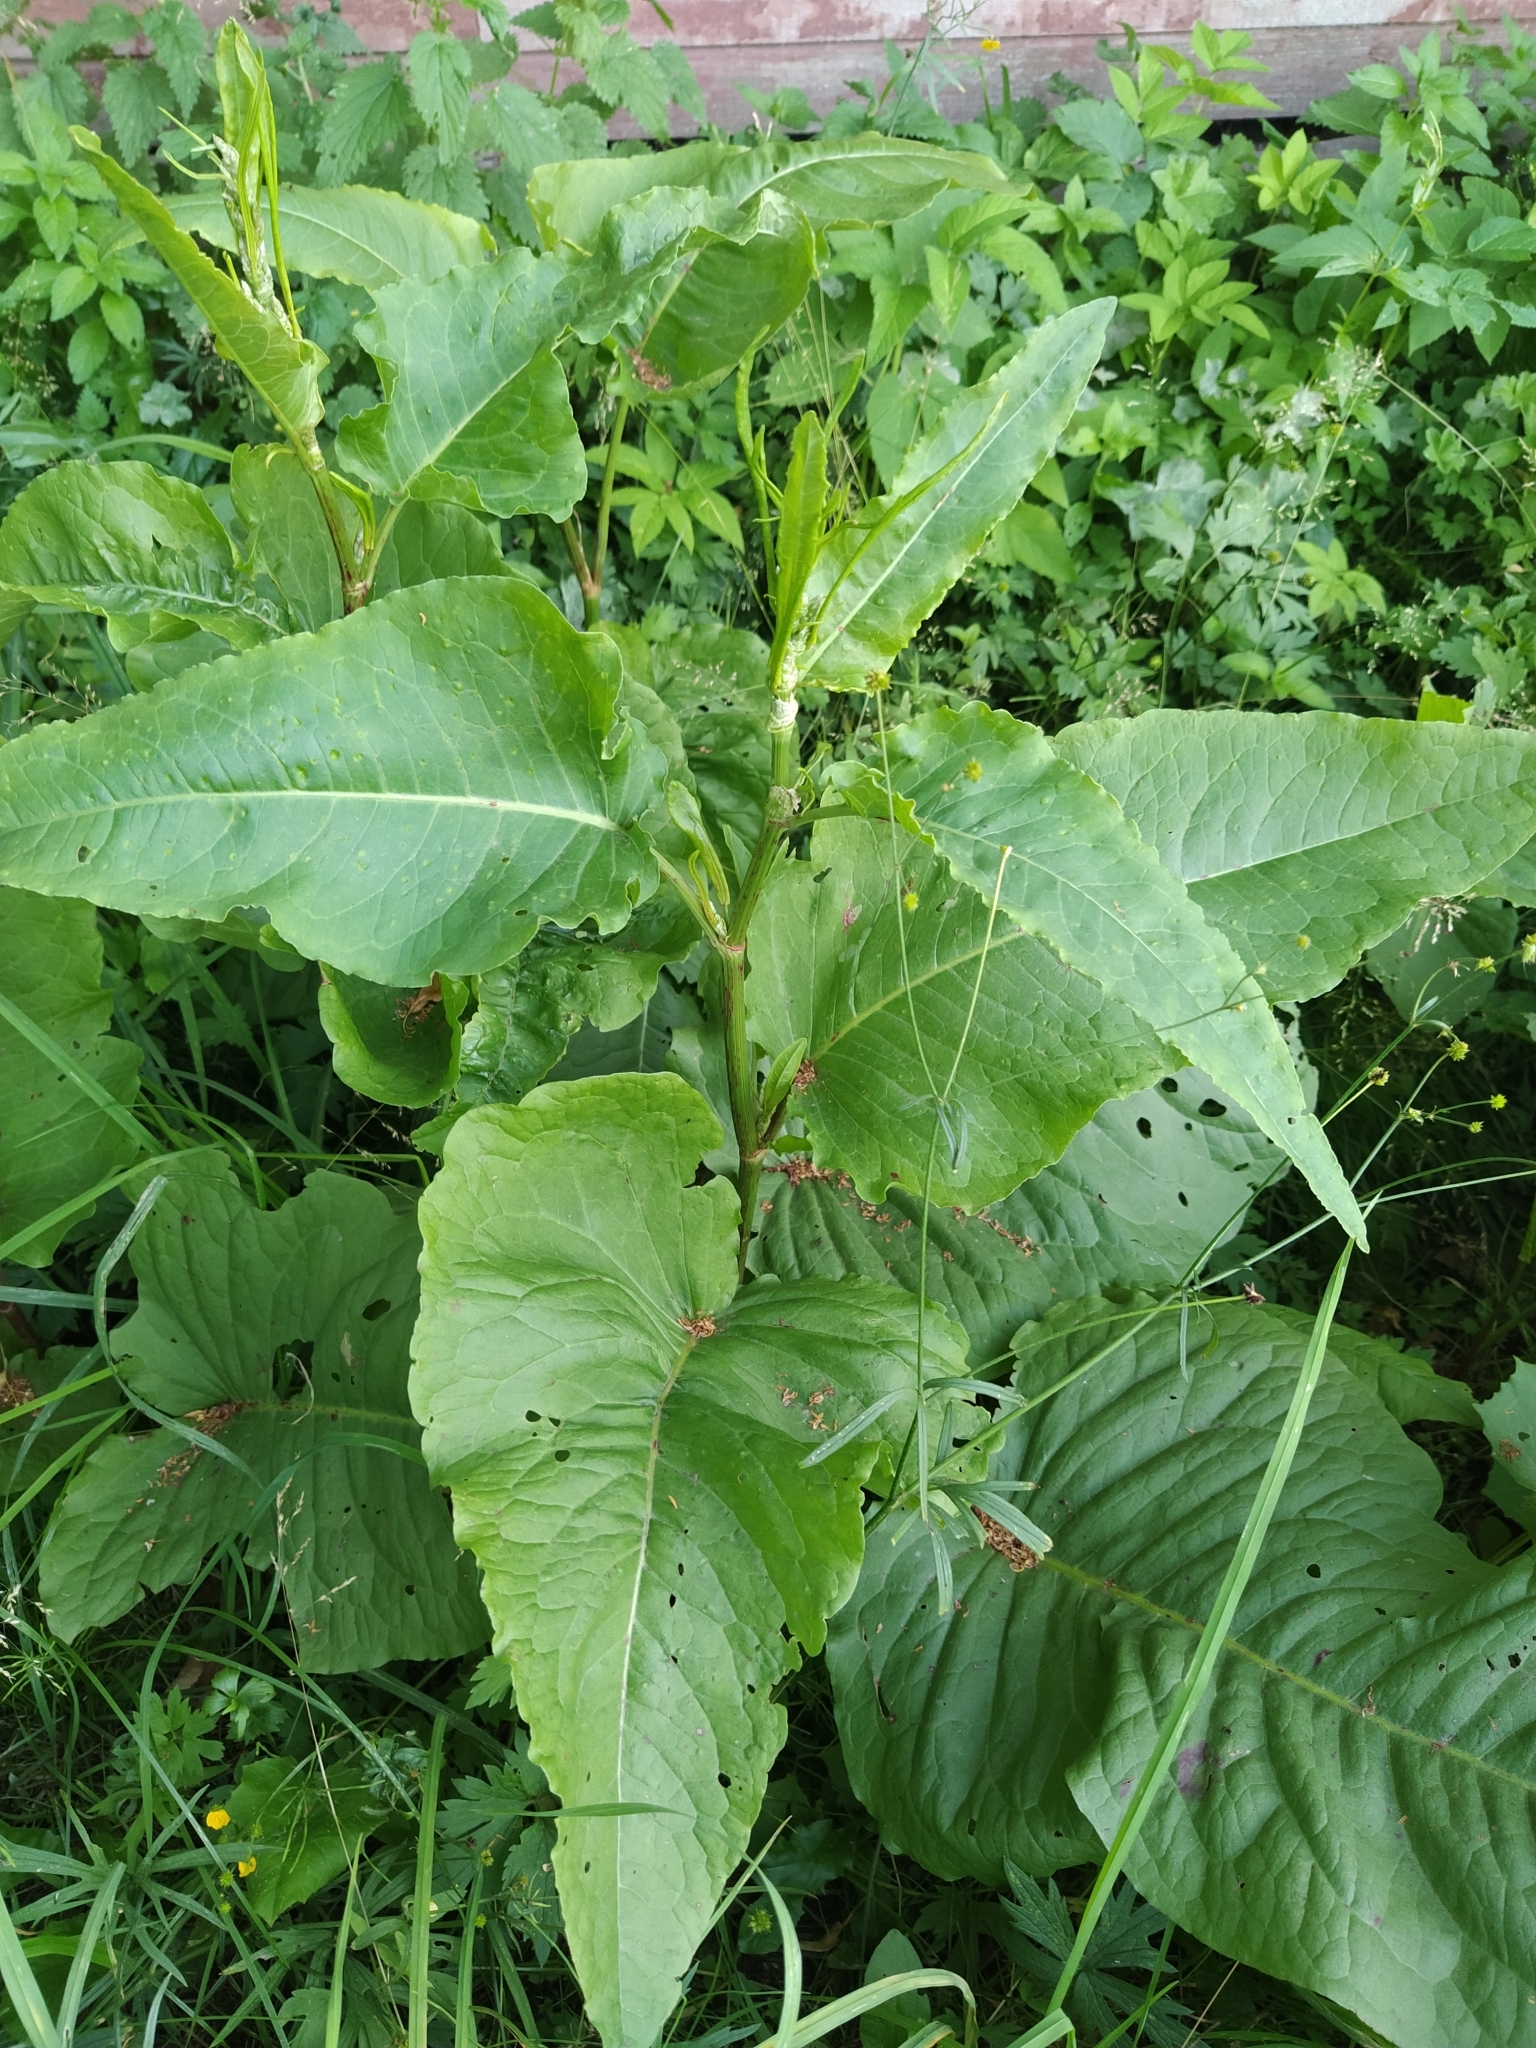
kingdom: Plantae
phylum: Tracheophyta
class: Magnoliopsida
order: Caryophyllales
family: Polygonaceae
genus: Rumex
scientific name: Rumex aquaticus
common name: Scottish dock
